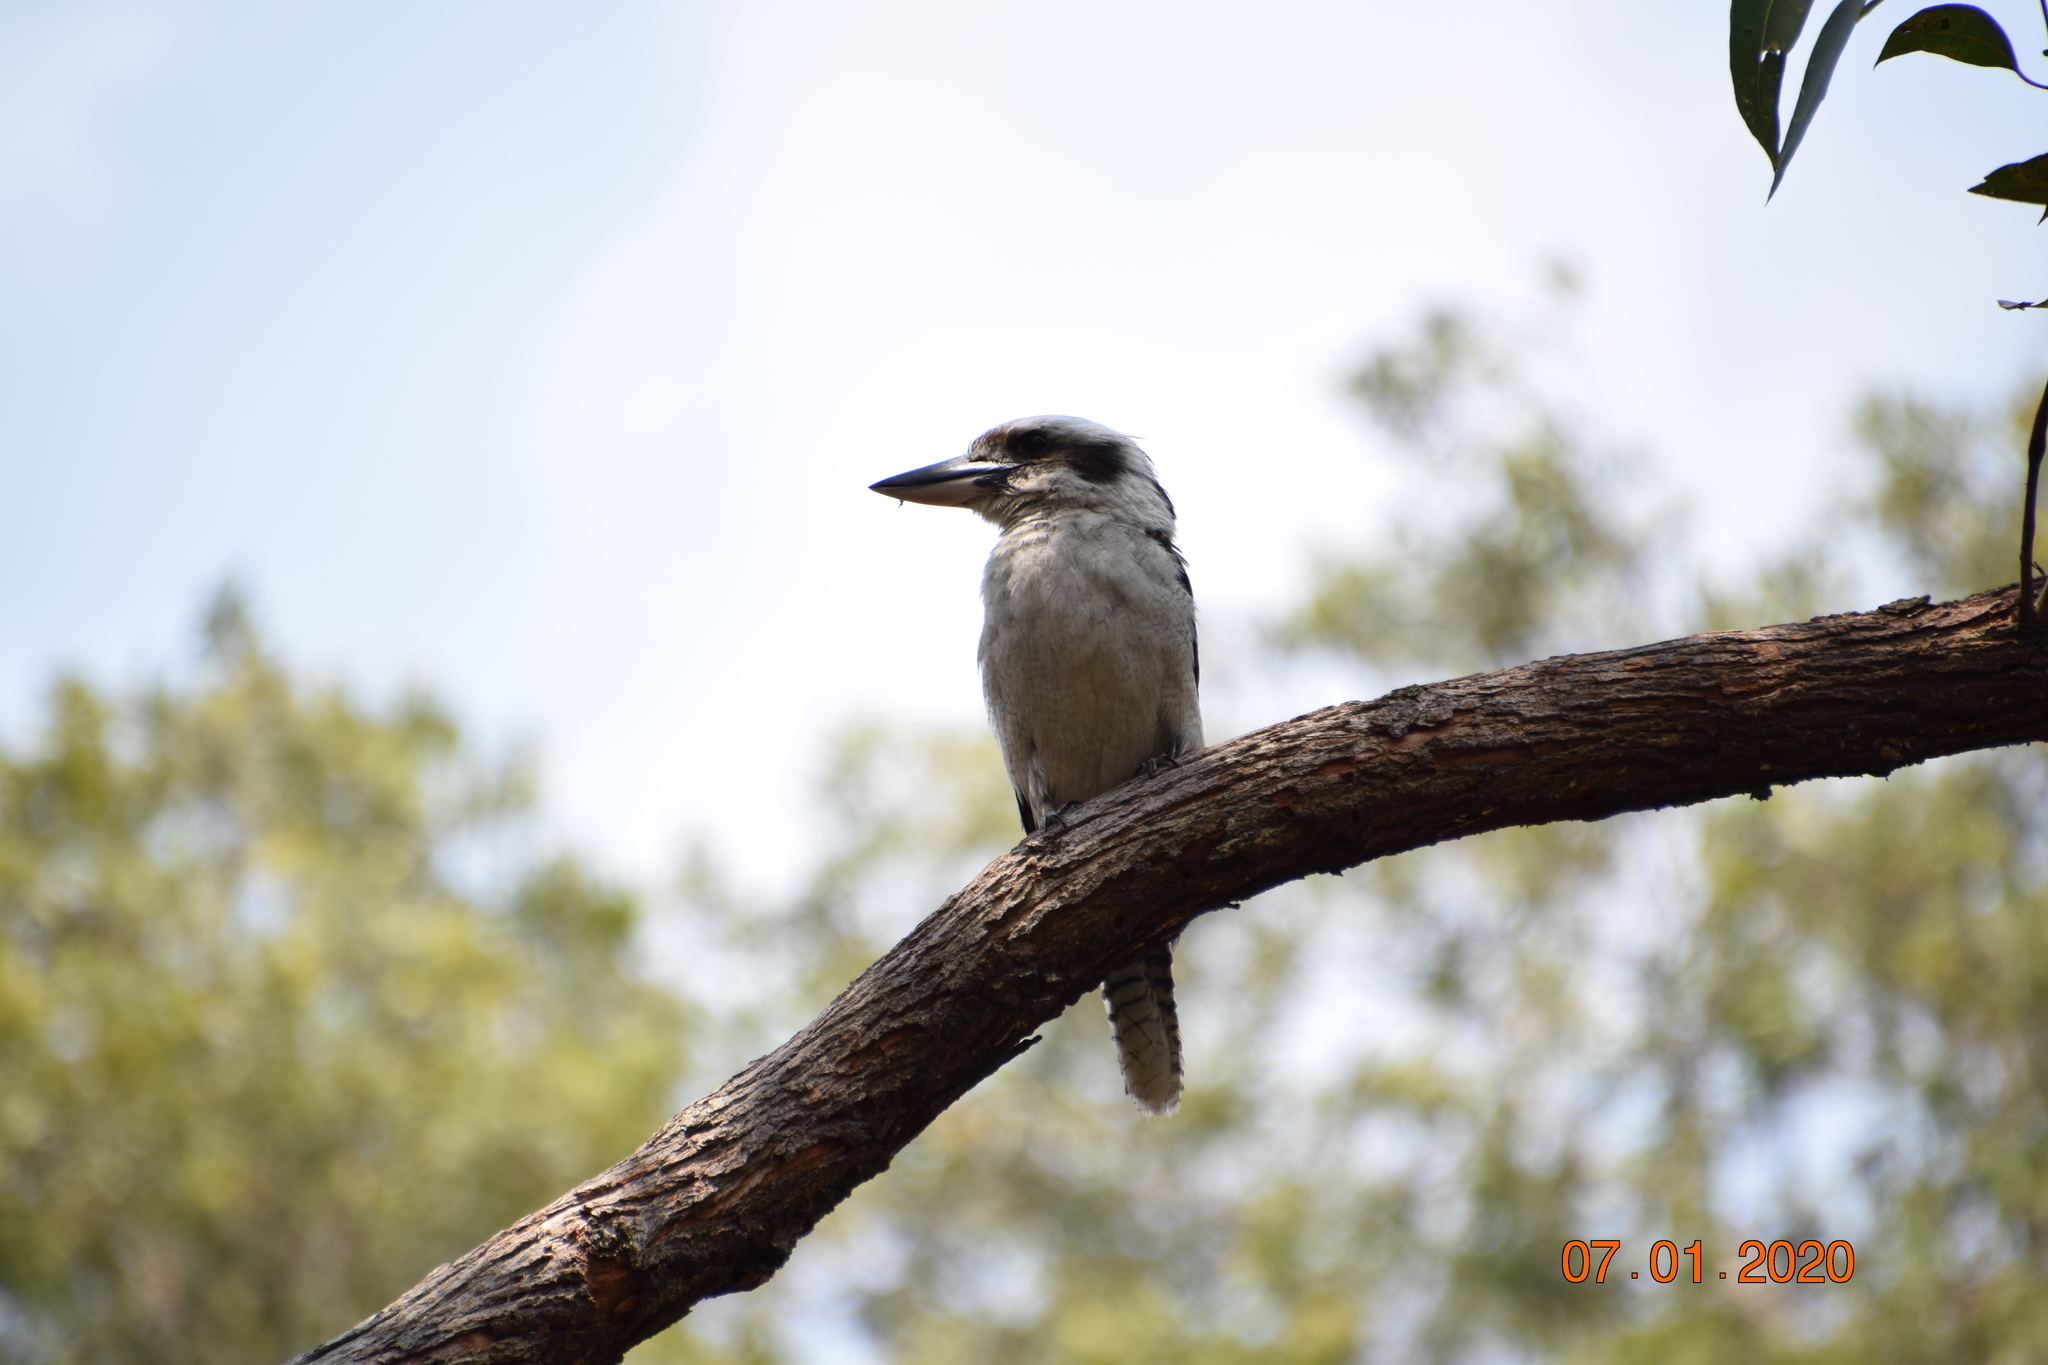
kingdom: Animalia
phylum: Chordata
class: Aves
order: Coraciiformes
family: Alcedinidae
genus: Dacelo
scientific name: Dacelo novaeguineae
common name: Laughing kookaburra
